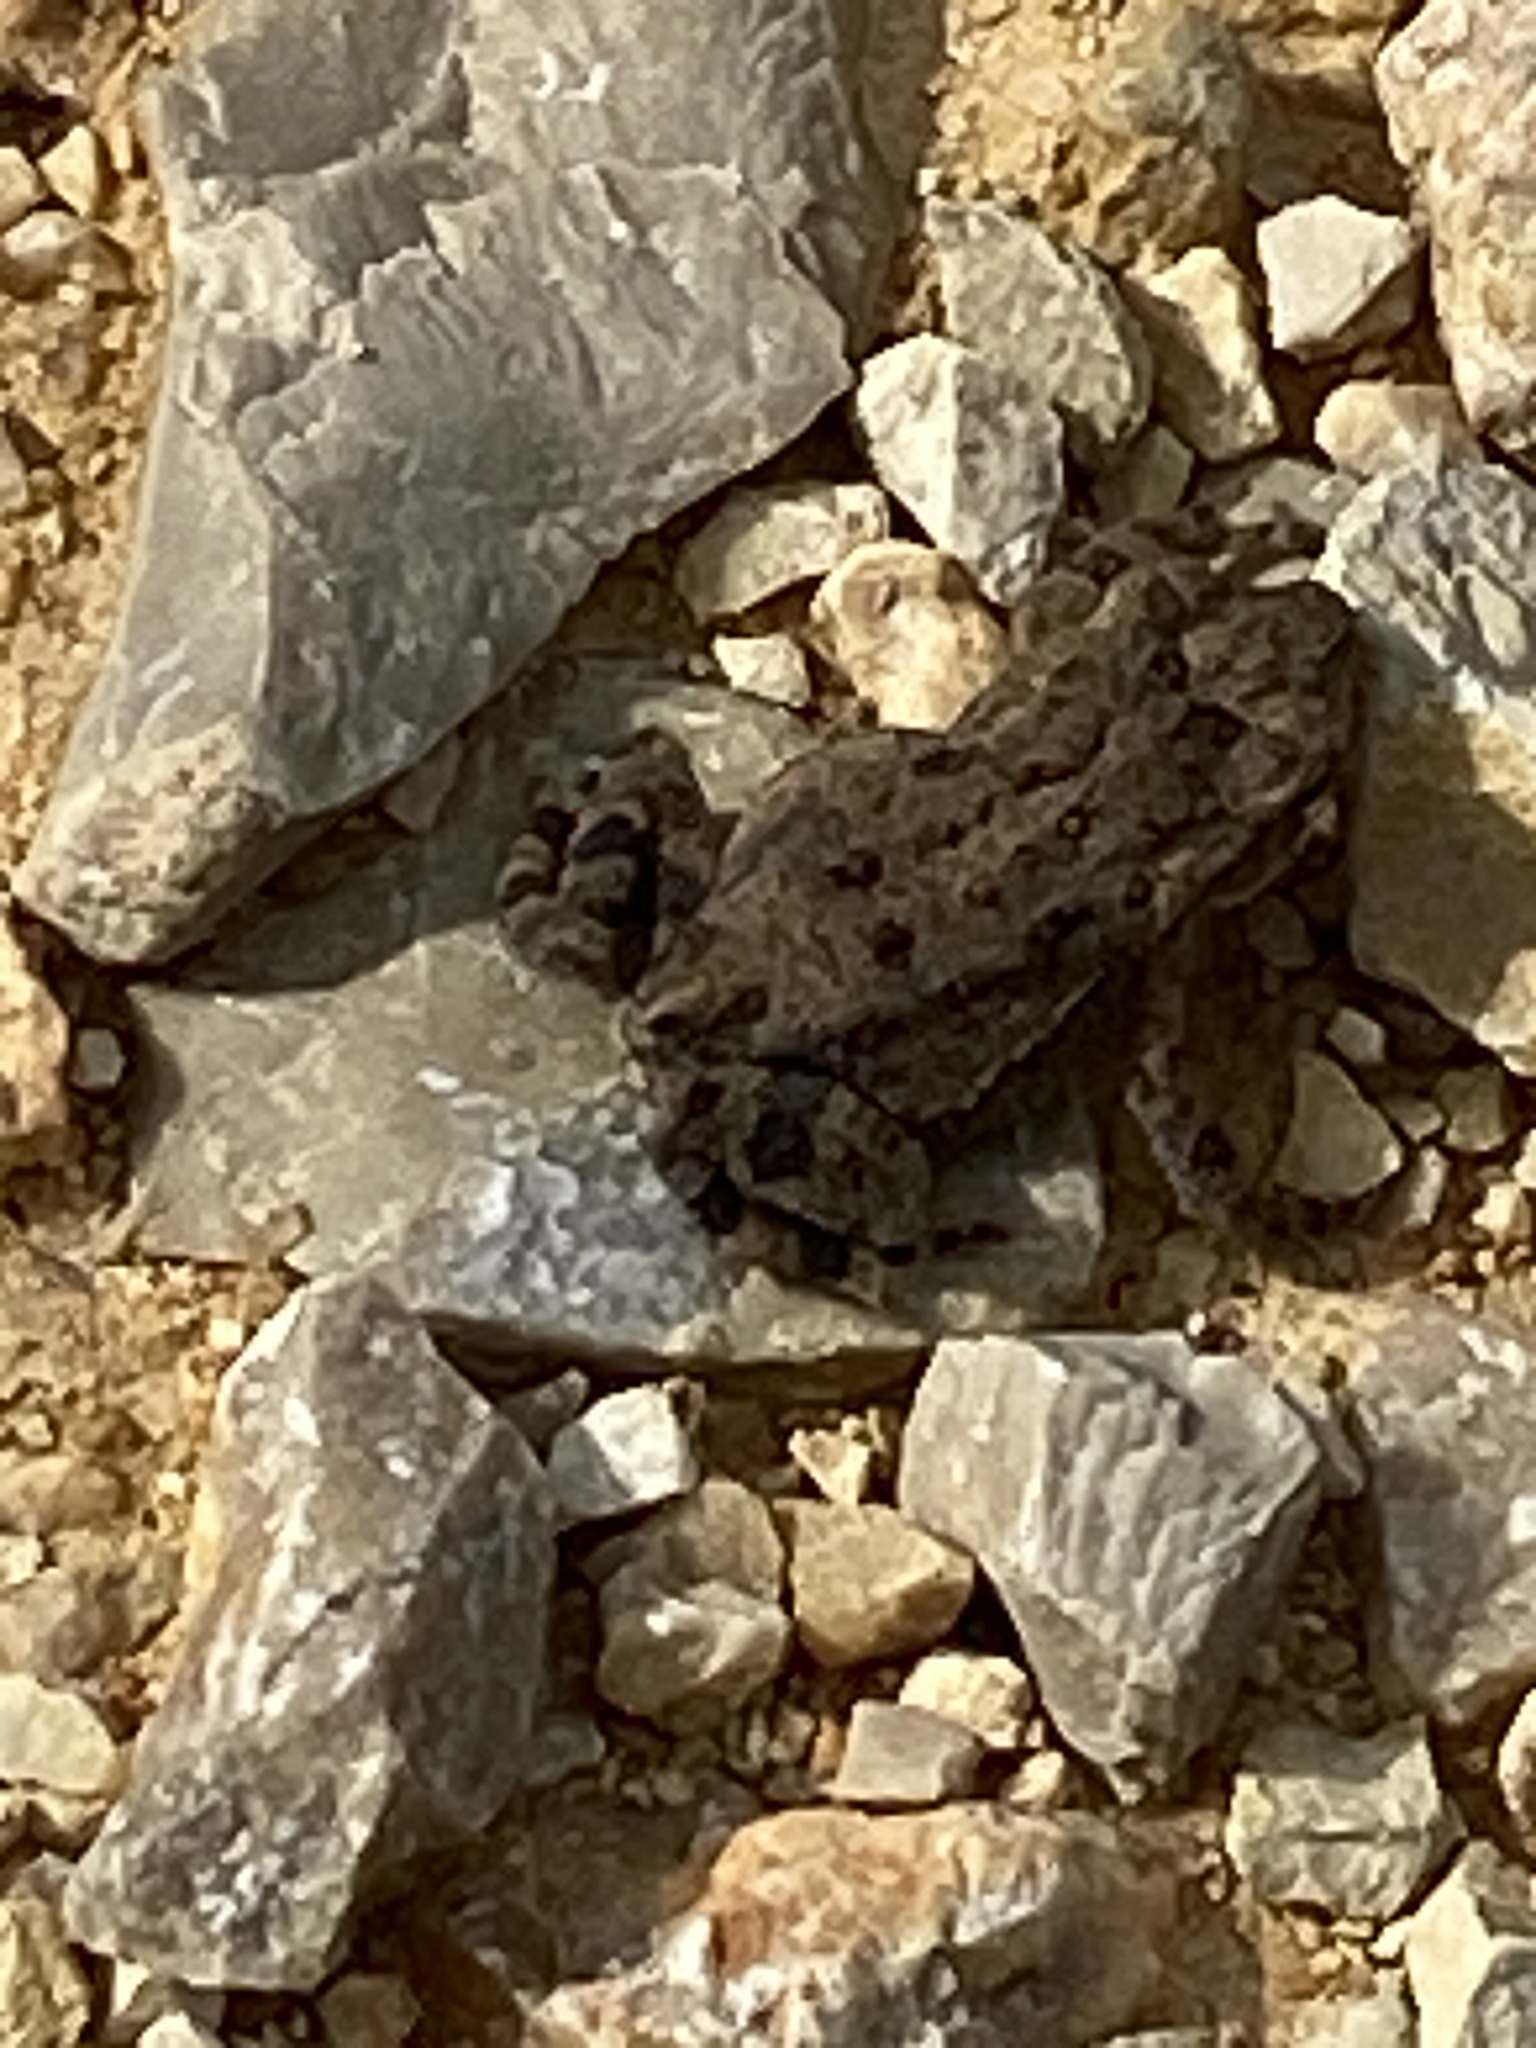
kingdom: Animalia
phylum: Chordata
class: Amphibia
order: Anura
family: Bufonidae
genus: Incilius
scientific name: Incilius nebulifer
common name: Gulf coast toad
